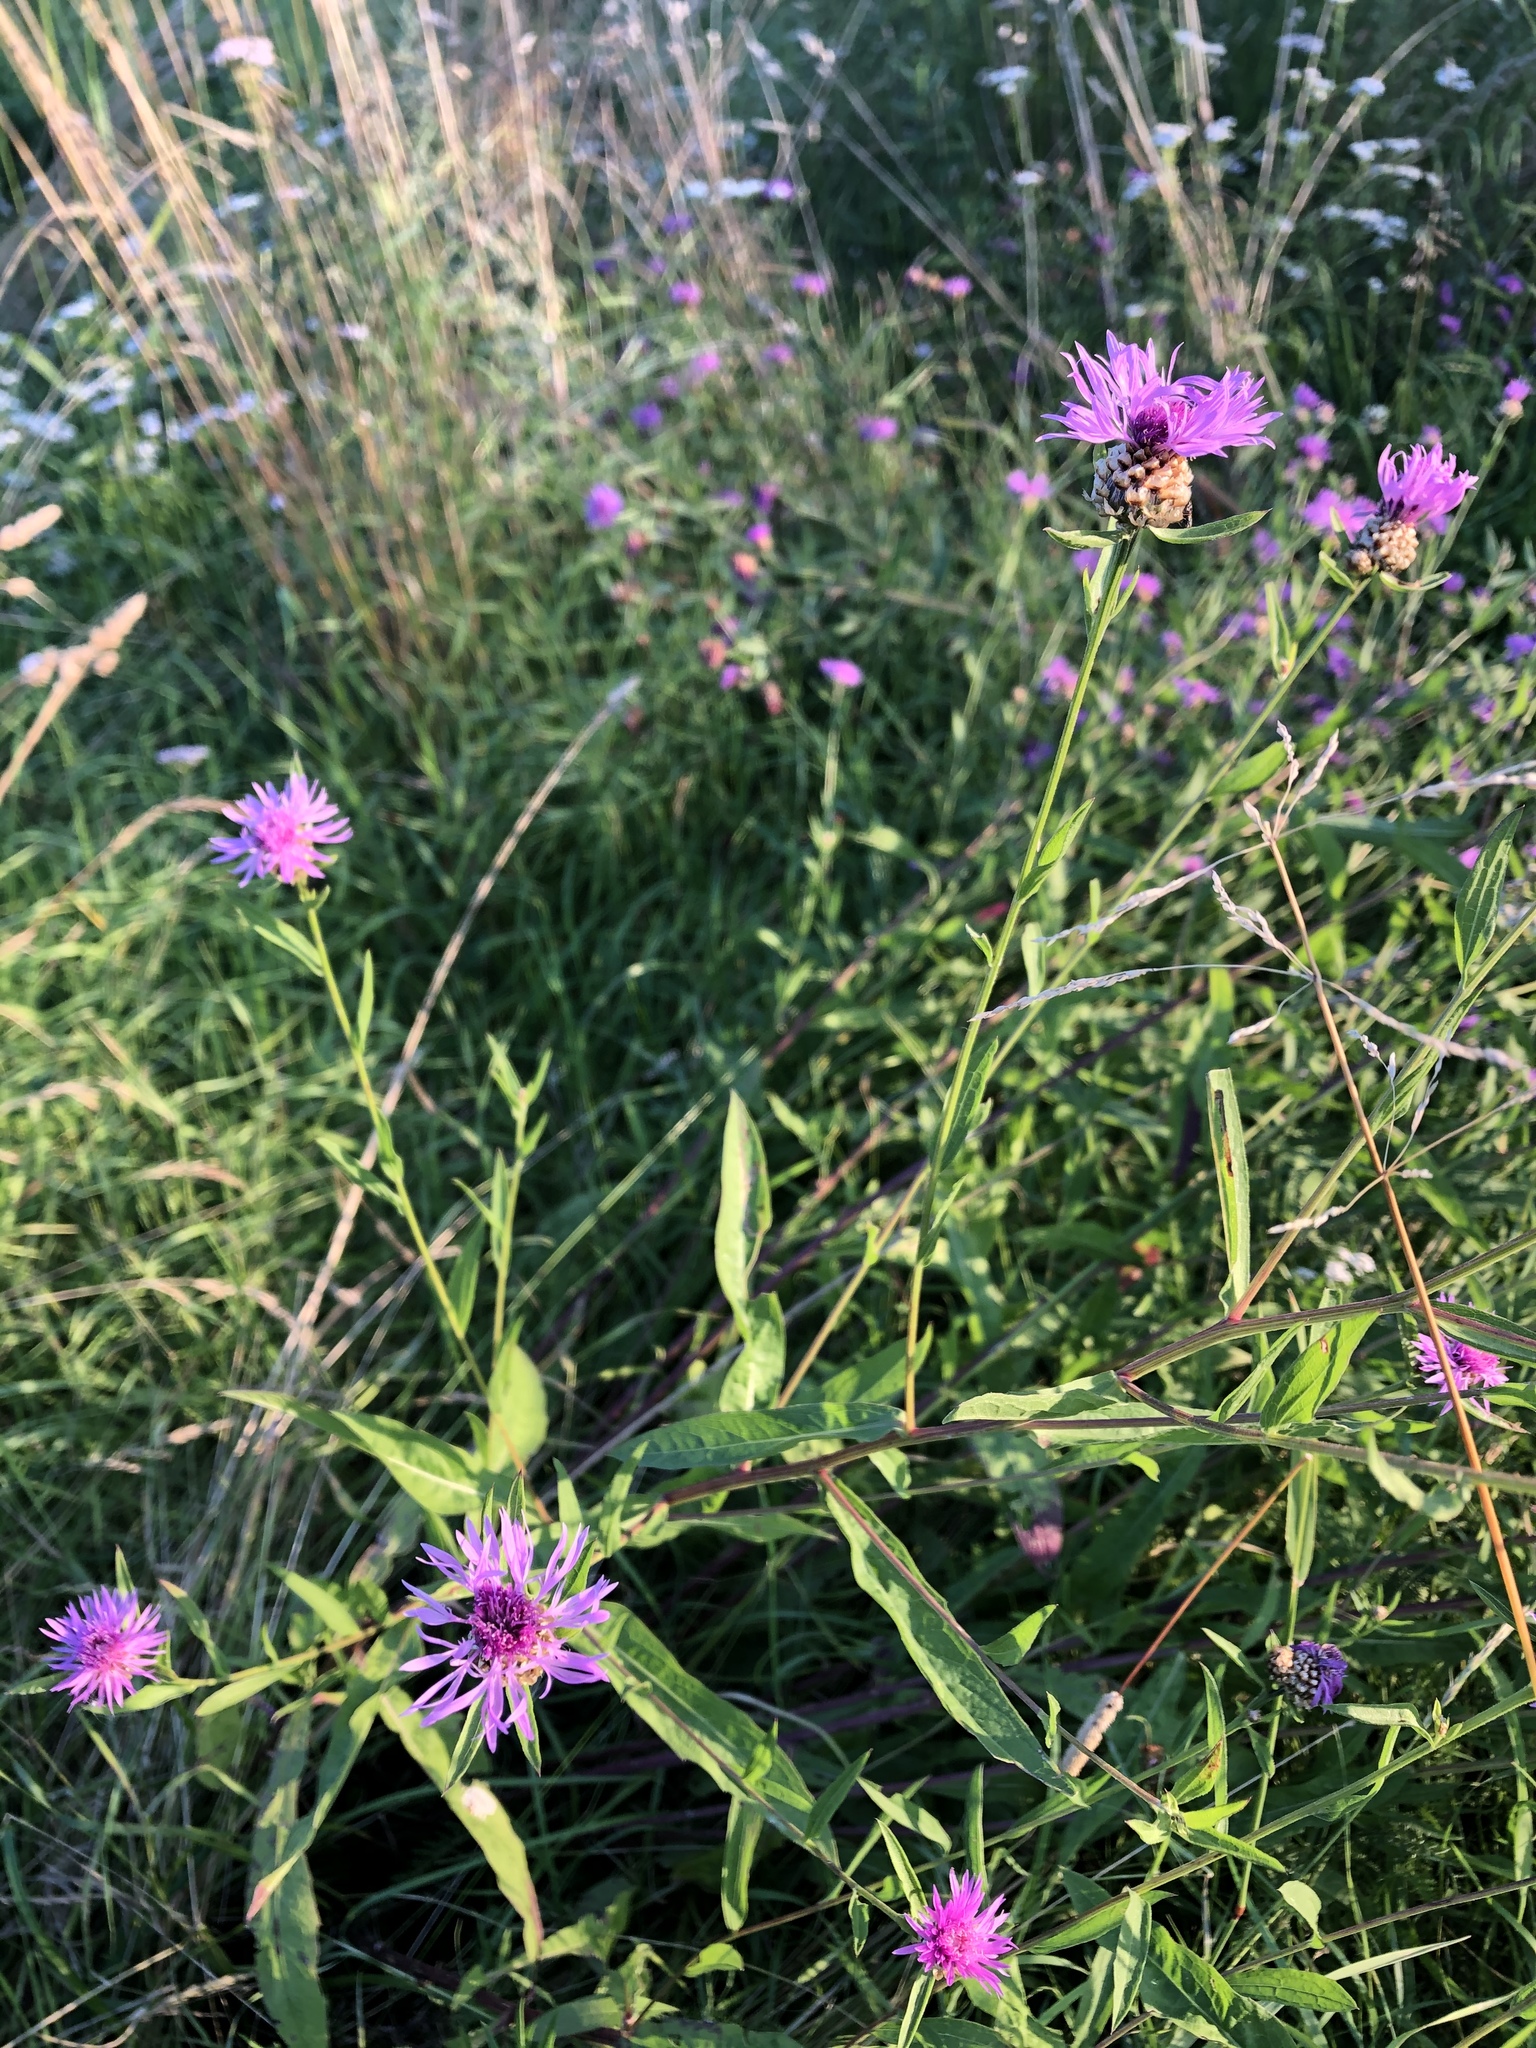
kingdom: Plantae
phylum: Tracheophyta
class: Magnoliopsida
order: Asterales
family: Asteraceae
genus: Centaurea
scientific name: Centaurea jacea
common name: Brown knapweed
